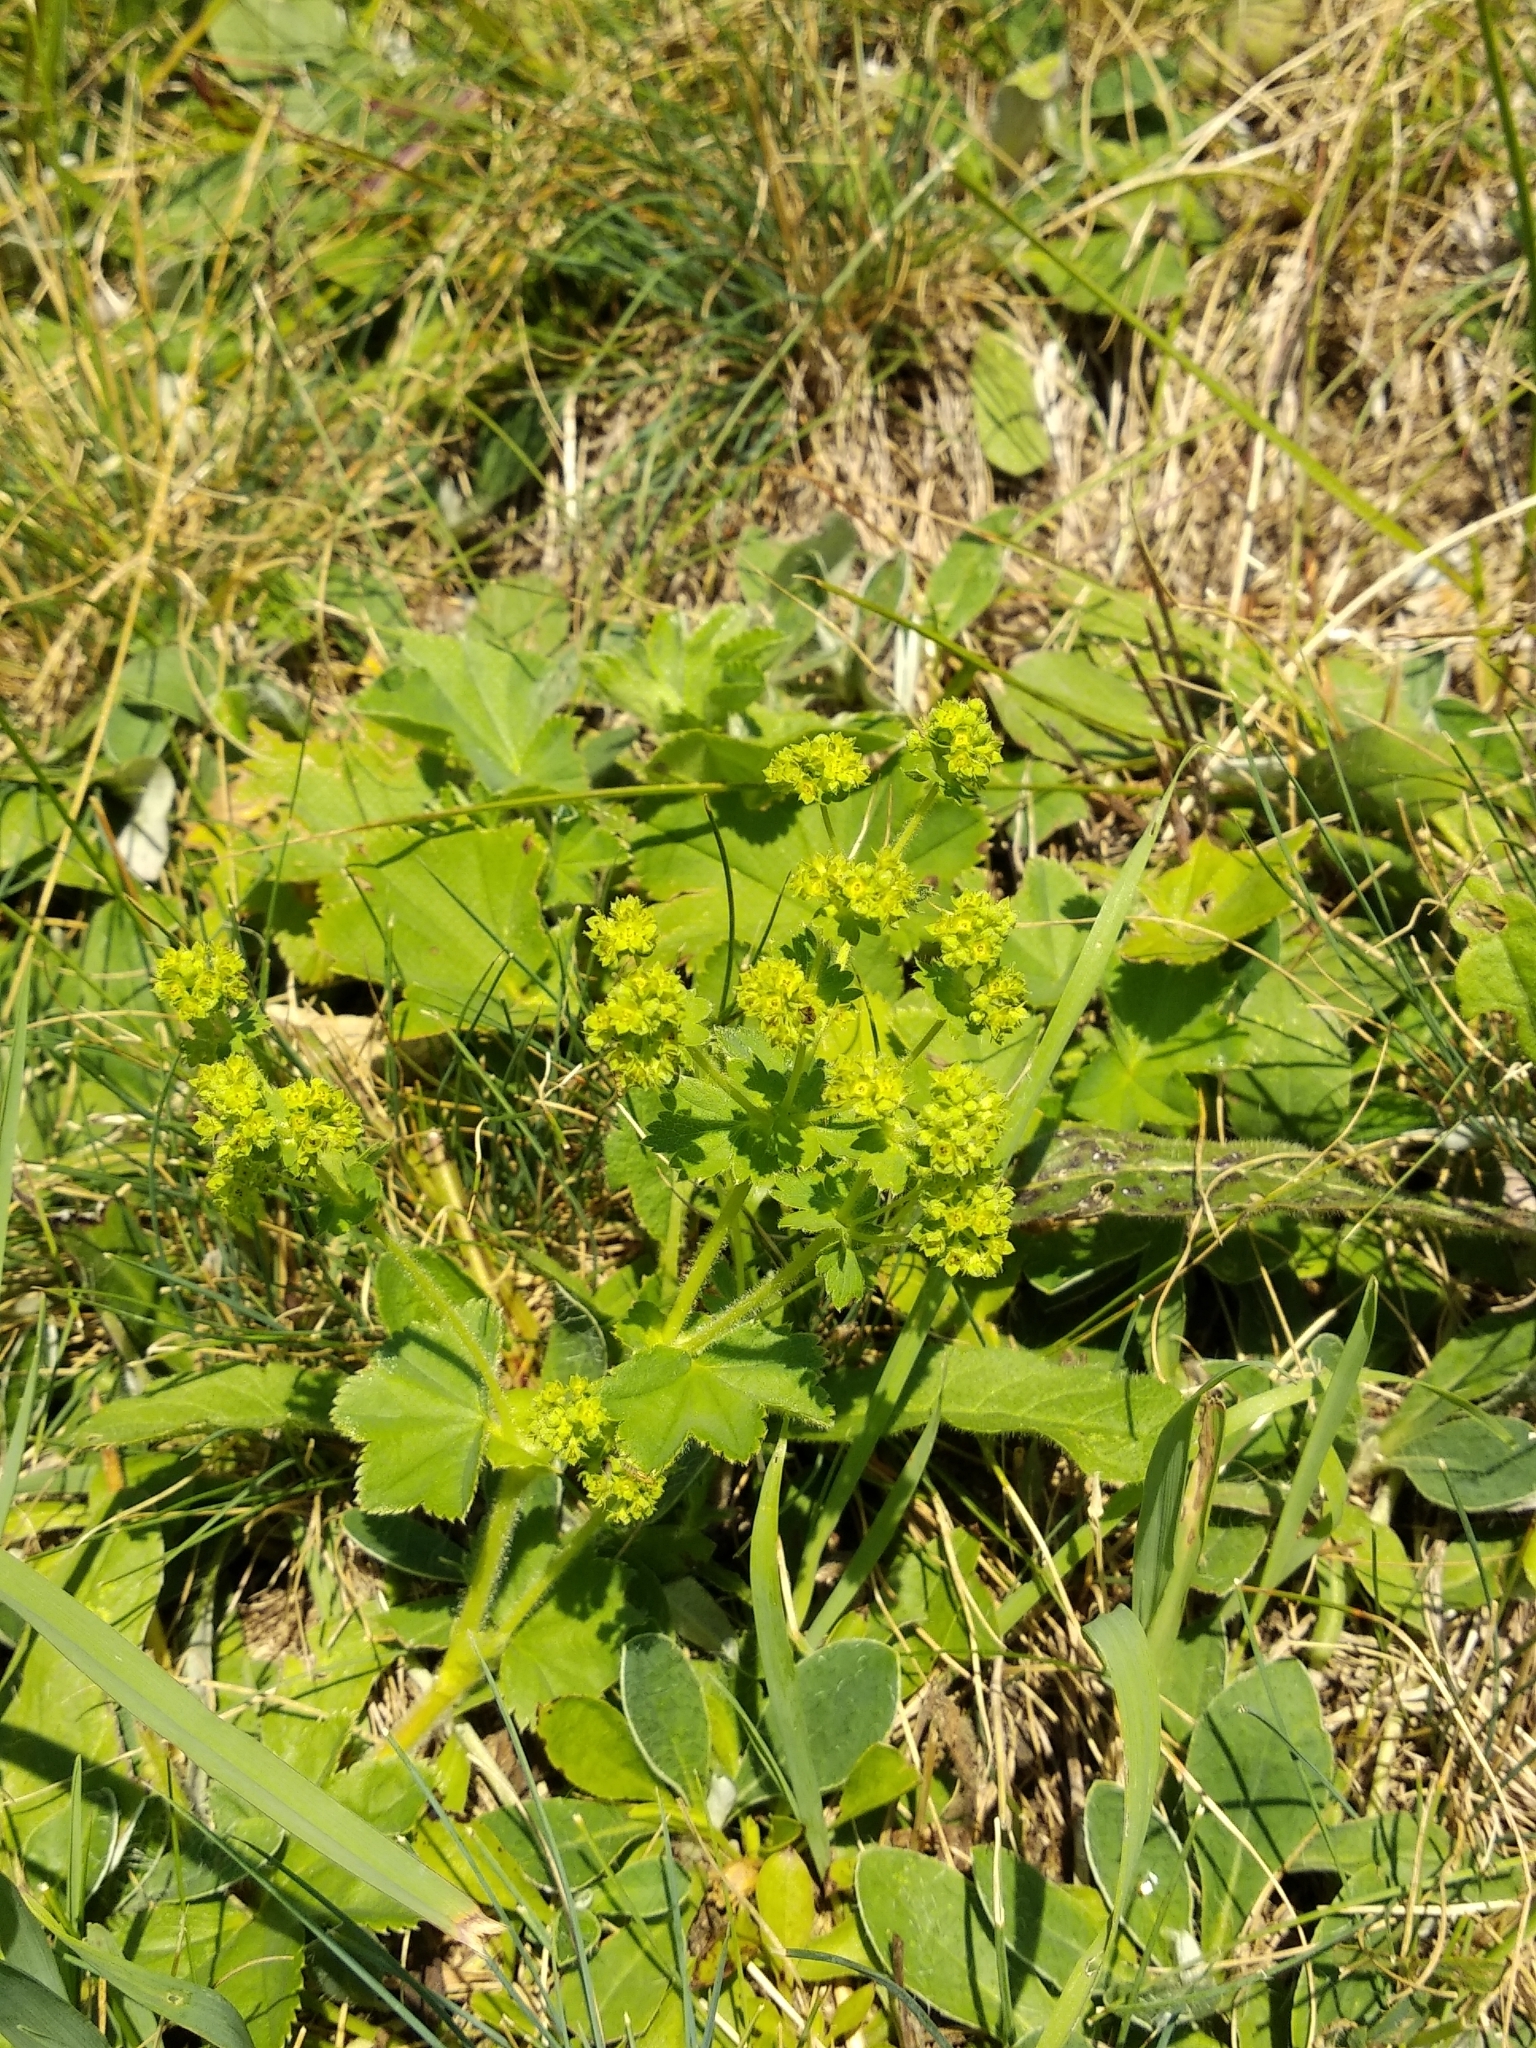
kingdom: Plantae
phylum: Tracheophyta
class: Magnoliopsida
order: Rosales
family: Rosaceae
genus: Alchemilla
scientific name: Alchemilla vulgaris
